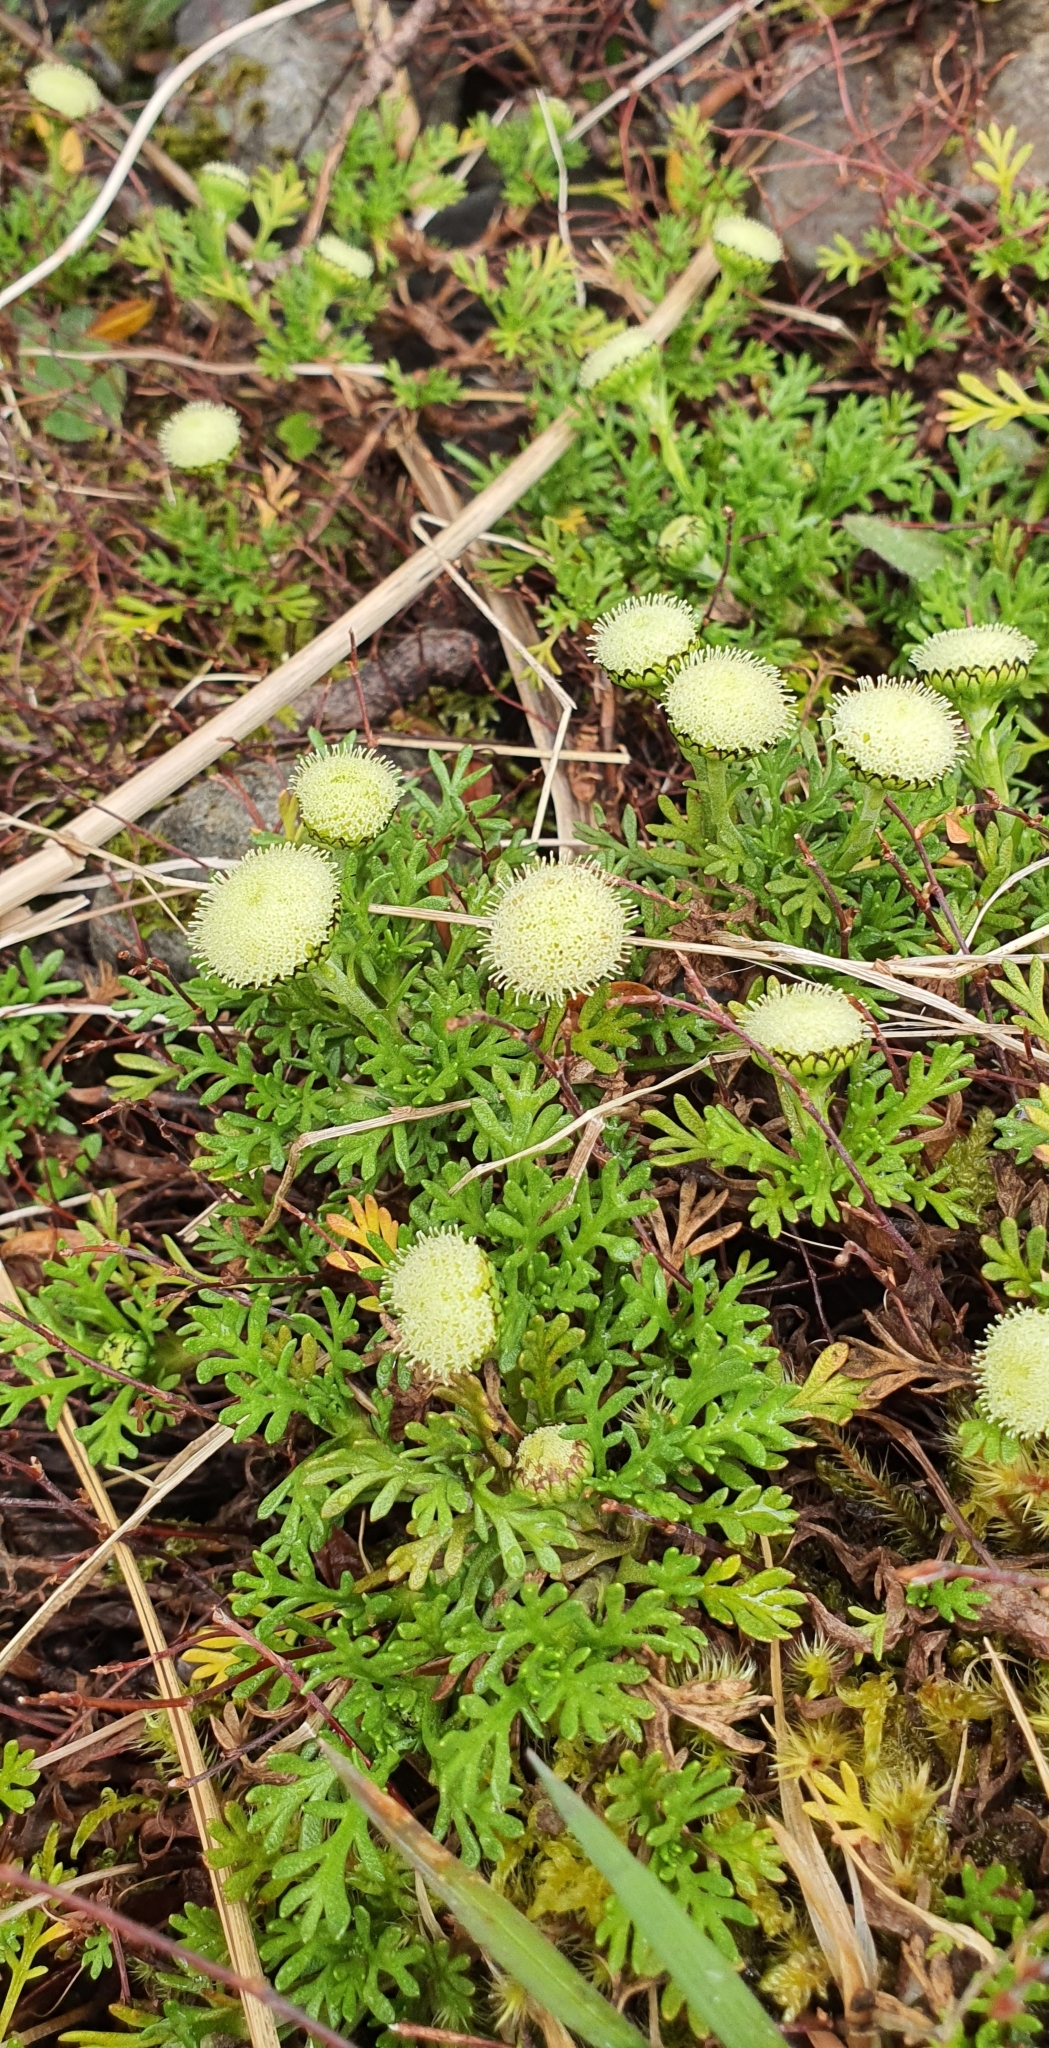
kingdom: Plantae
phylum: Tracheophyta
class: Magnoliopsida
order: Asterales
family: Asteraceae
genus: Leptinella
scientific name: Leptinella pyrethrifolia
